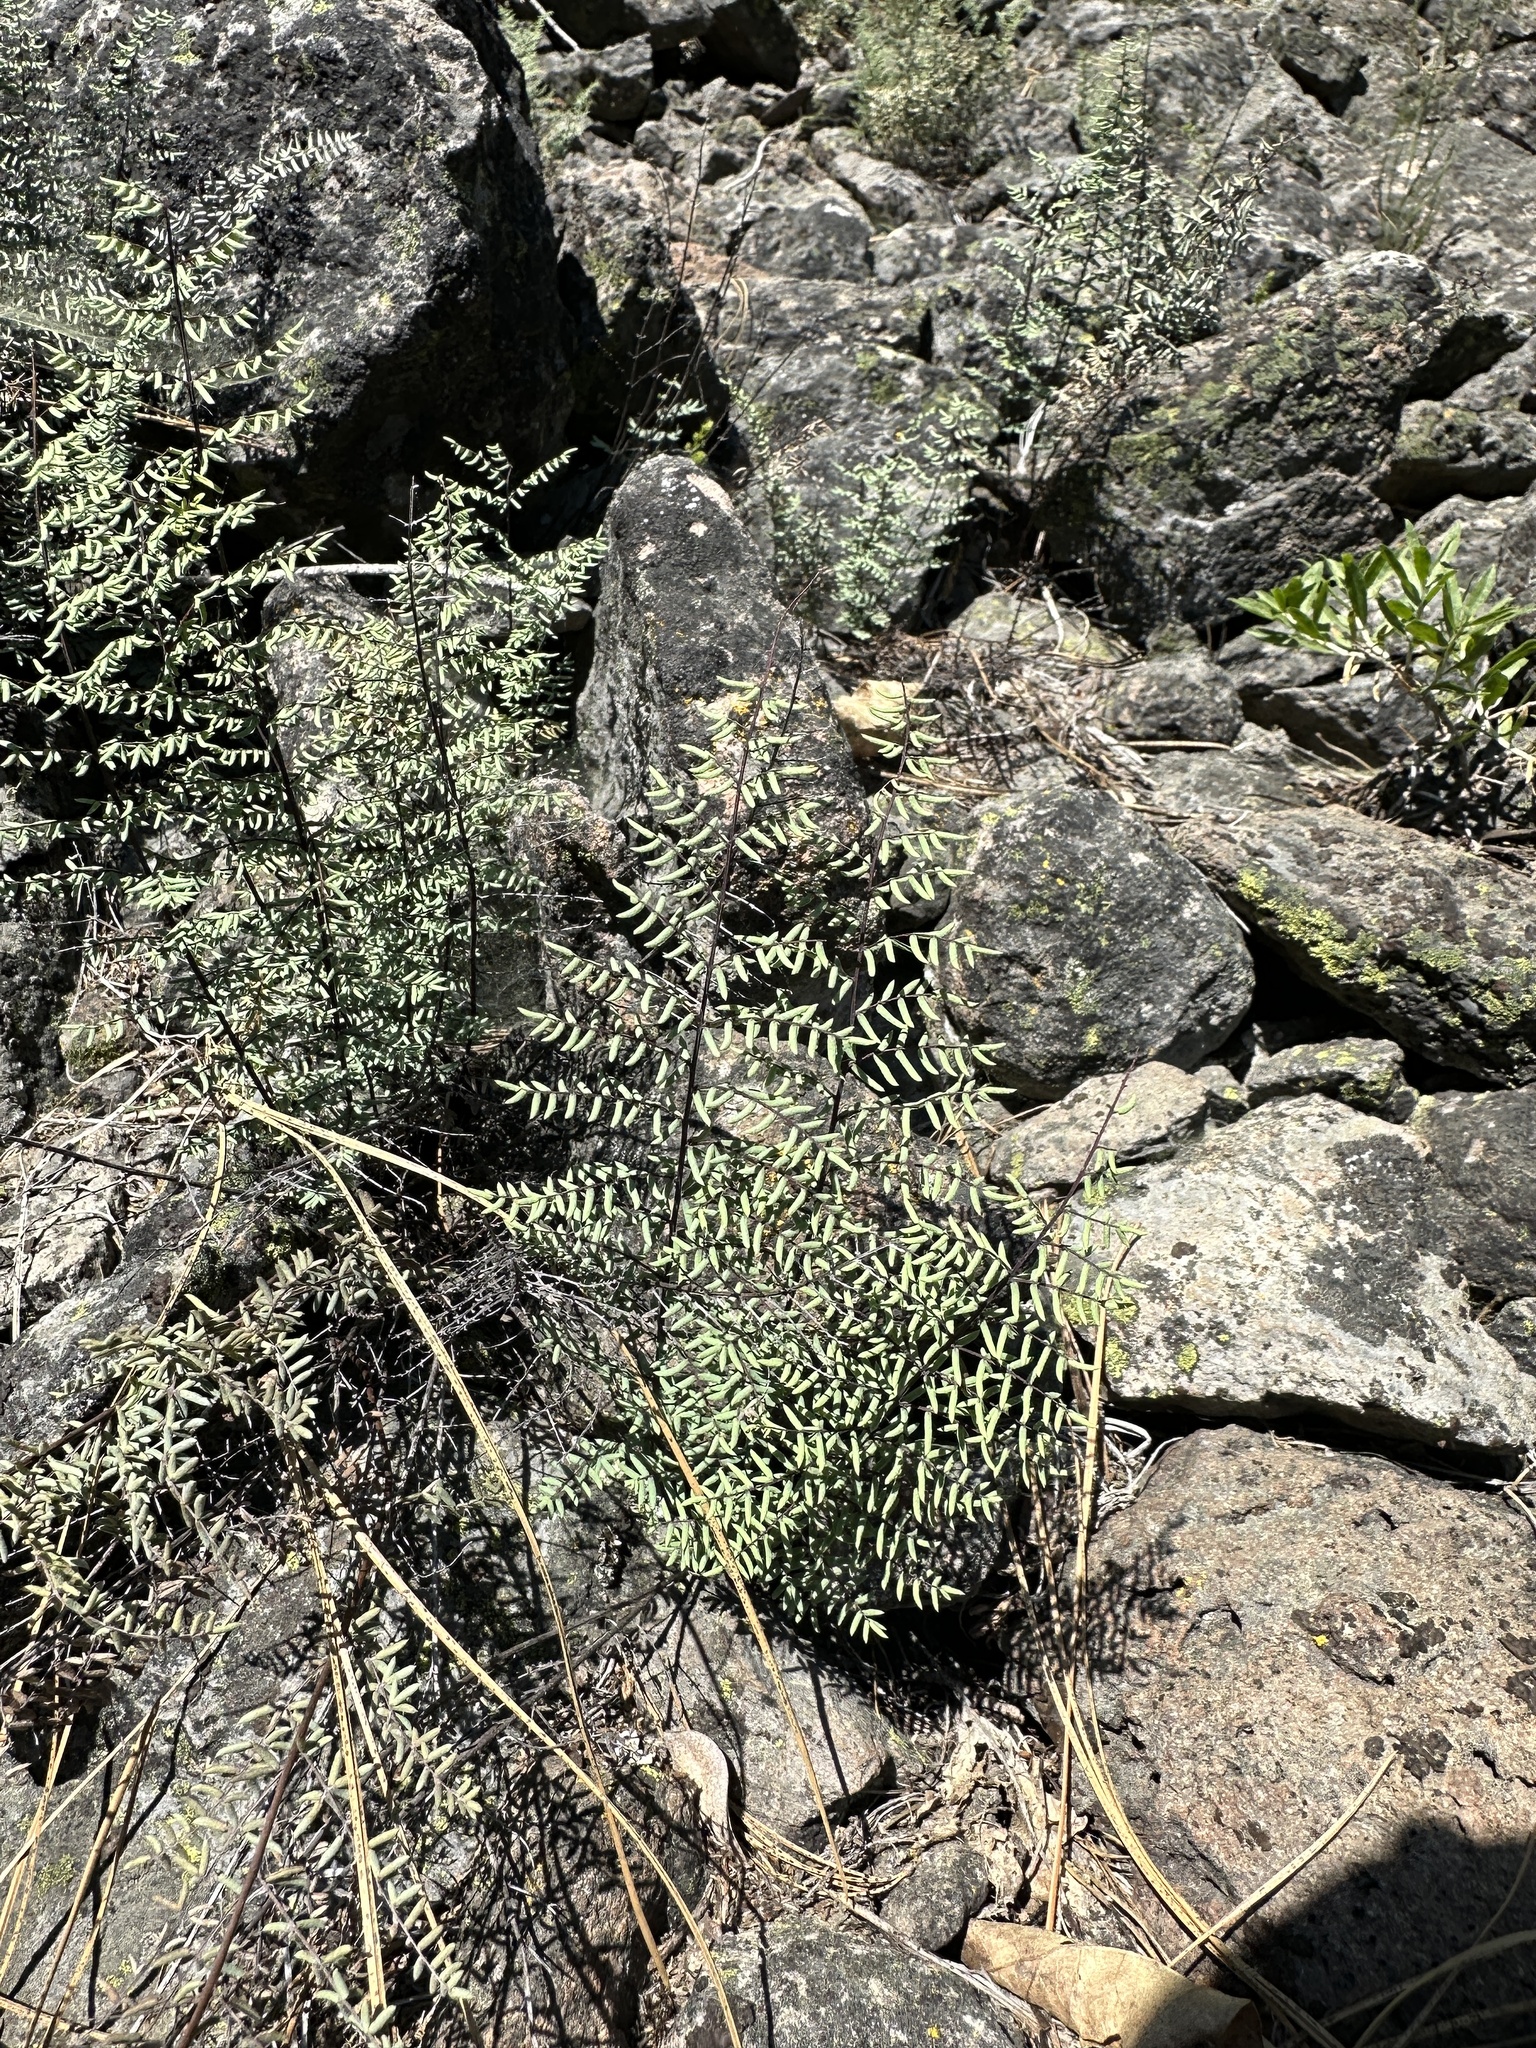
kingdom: Plantae
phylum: Tracheophyta
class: Polypodiopsida
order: Polypodiales
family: Pteridaceae
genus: Pellaea
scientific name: Pellaea mucronata
